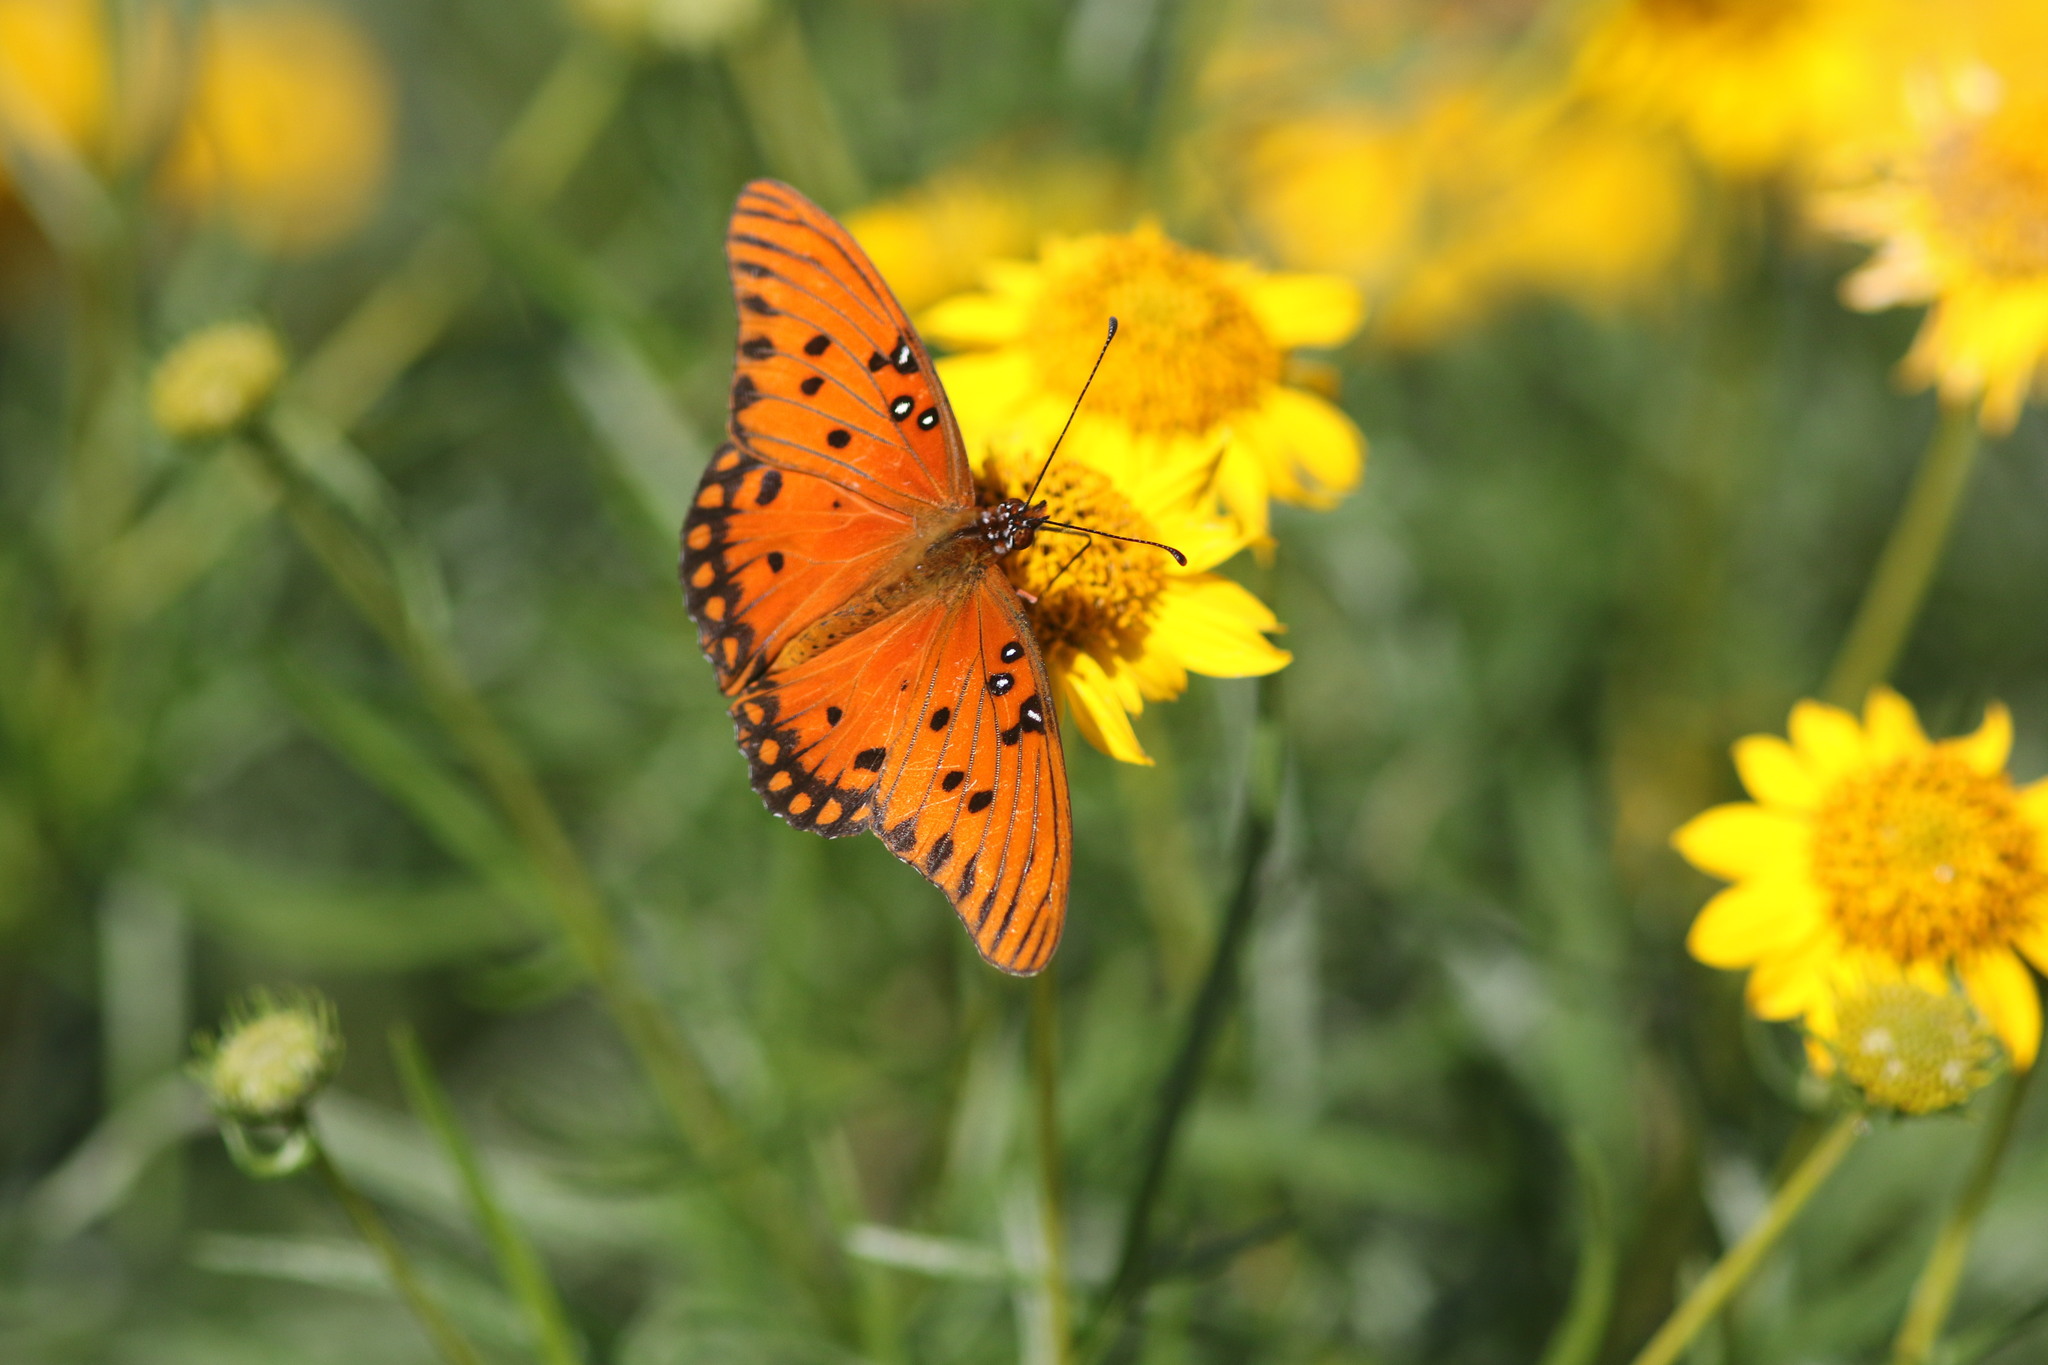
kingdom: Animalia
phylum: Arthropoda
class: Insecta
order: Lepidoptera
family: Nymphalidae
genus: Dione
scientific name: Dione vanillae
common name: Gulf fritillary
